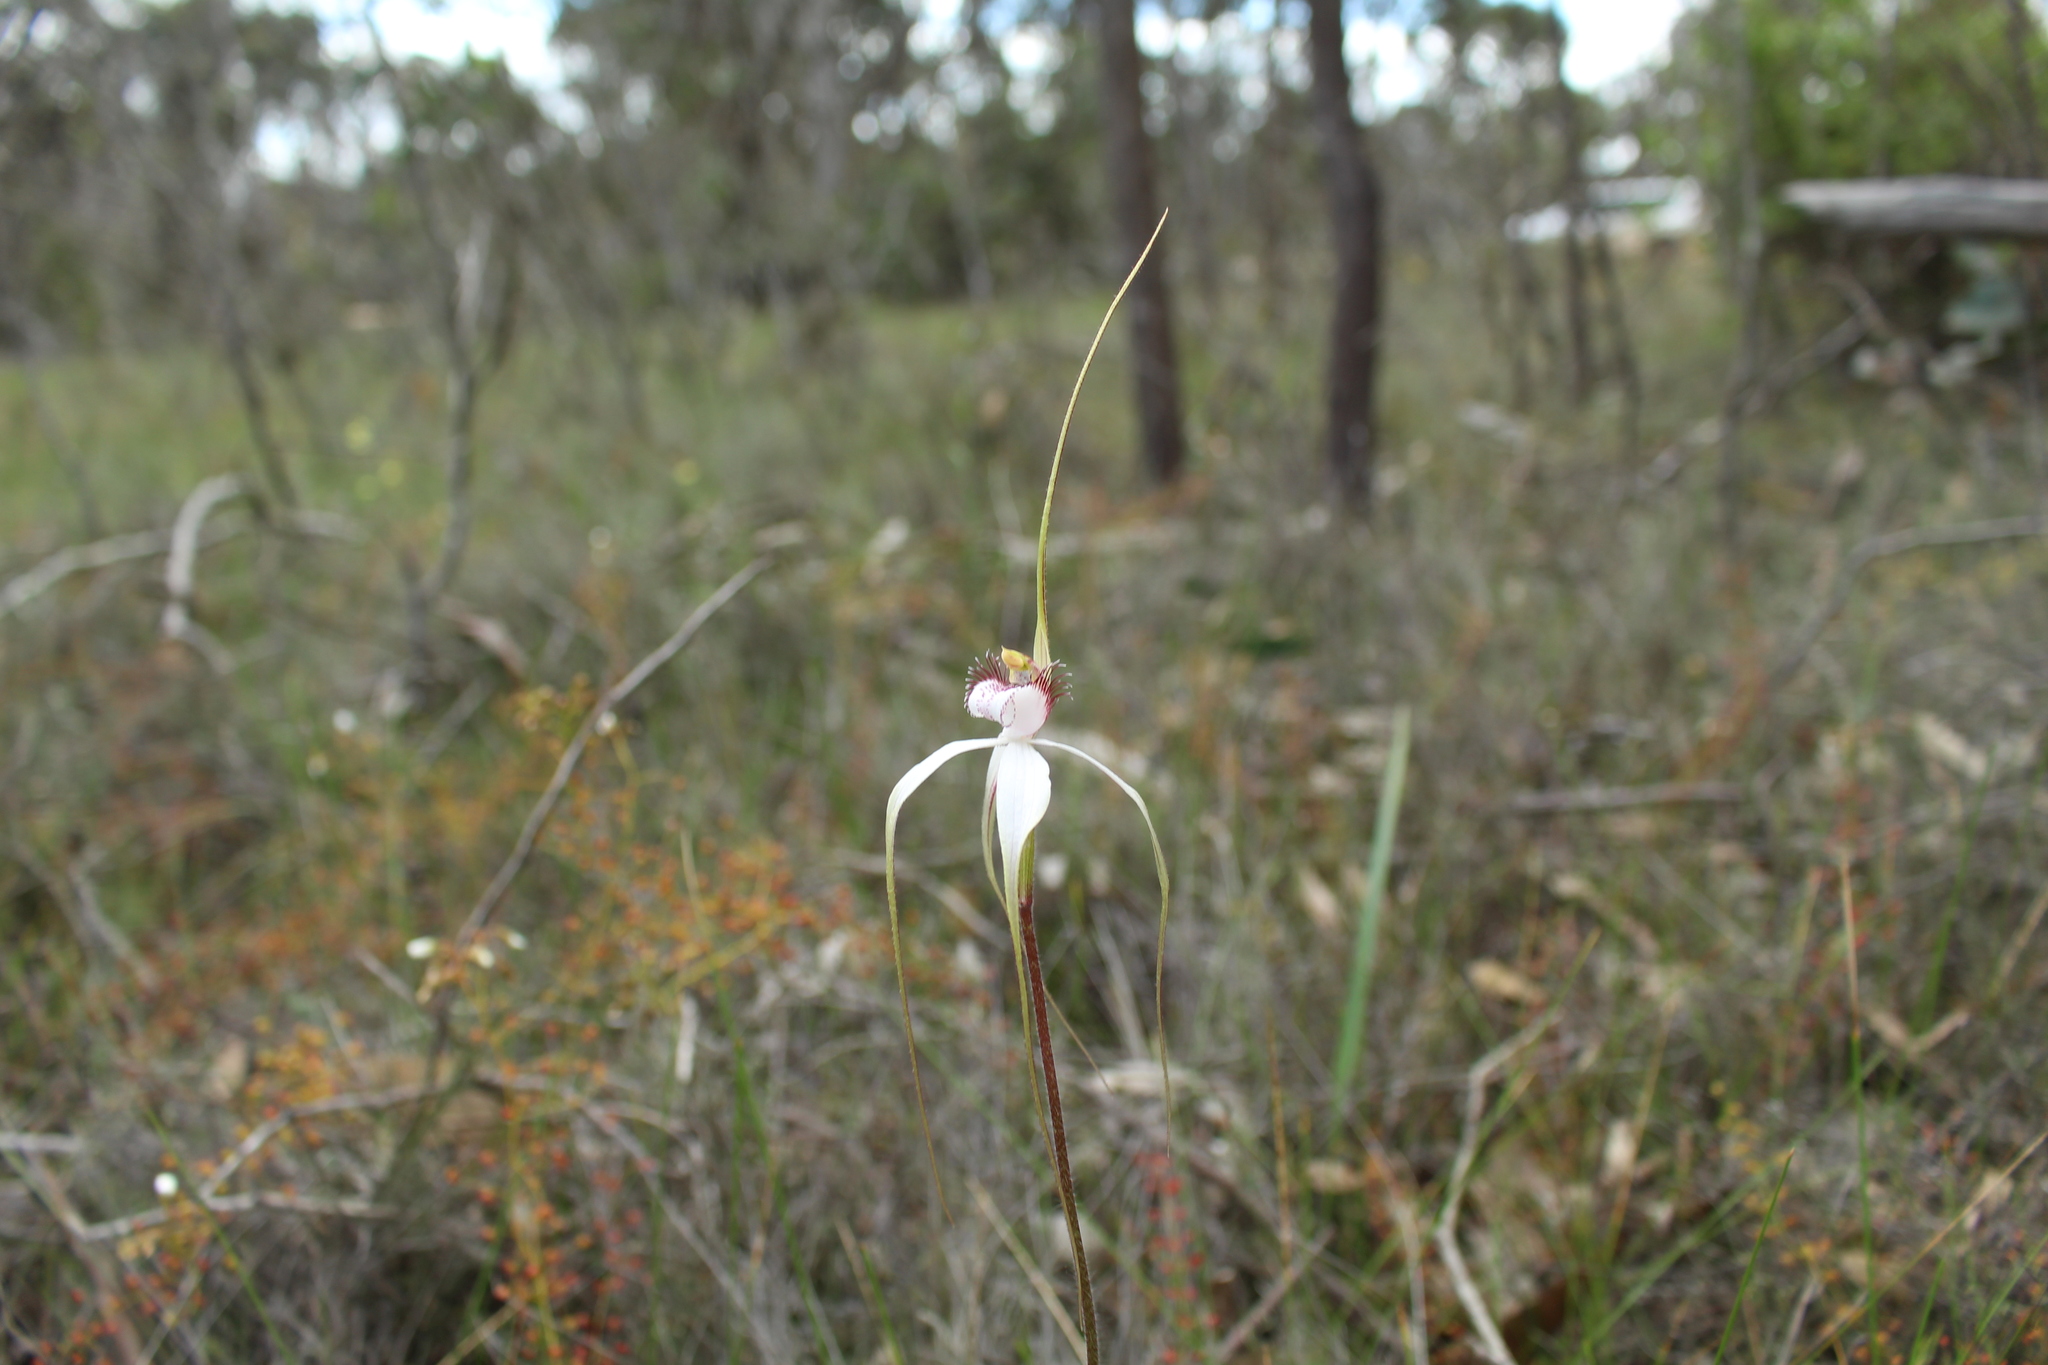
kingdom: Plantae
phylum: Tracheophyta
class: Liliopsida
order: Asparagales
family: Orchidaceae
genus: Caladenia
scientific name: Caladenia longicauda
